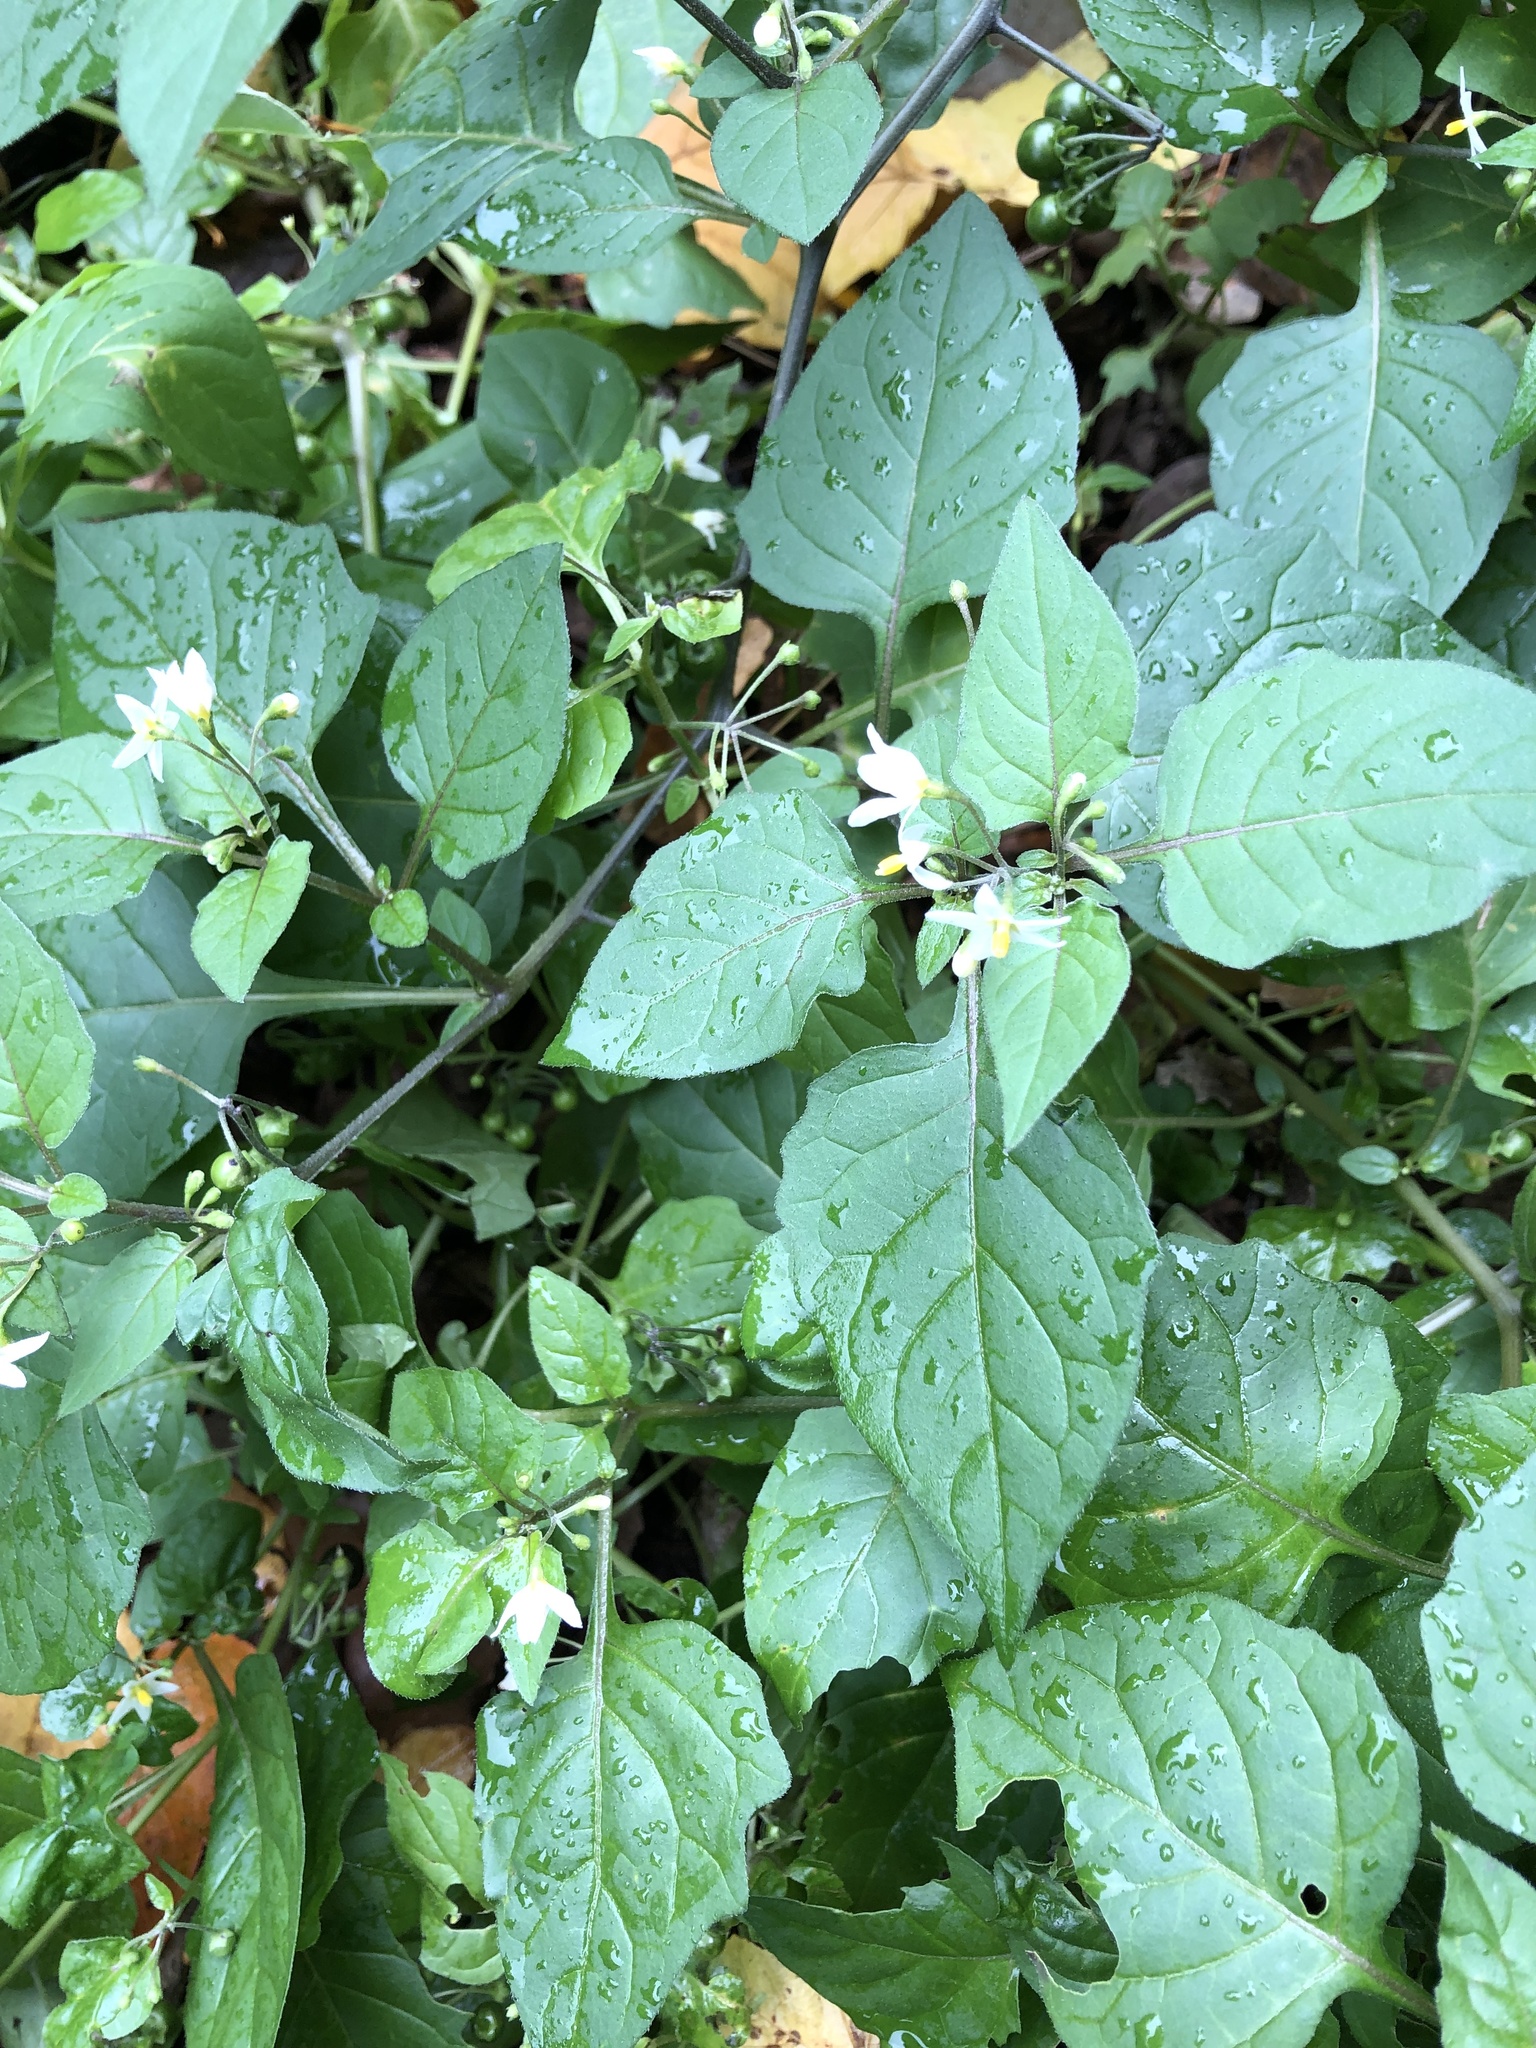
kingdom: Plantae
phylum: Tracheophyta
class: Magnoliopsida
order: Solanales
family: Solanaceae
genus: Solanum
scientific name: Solanum nigrum
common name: Black nightshade
